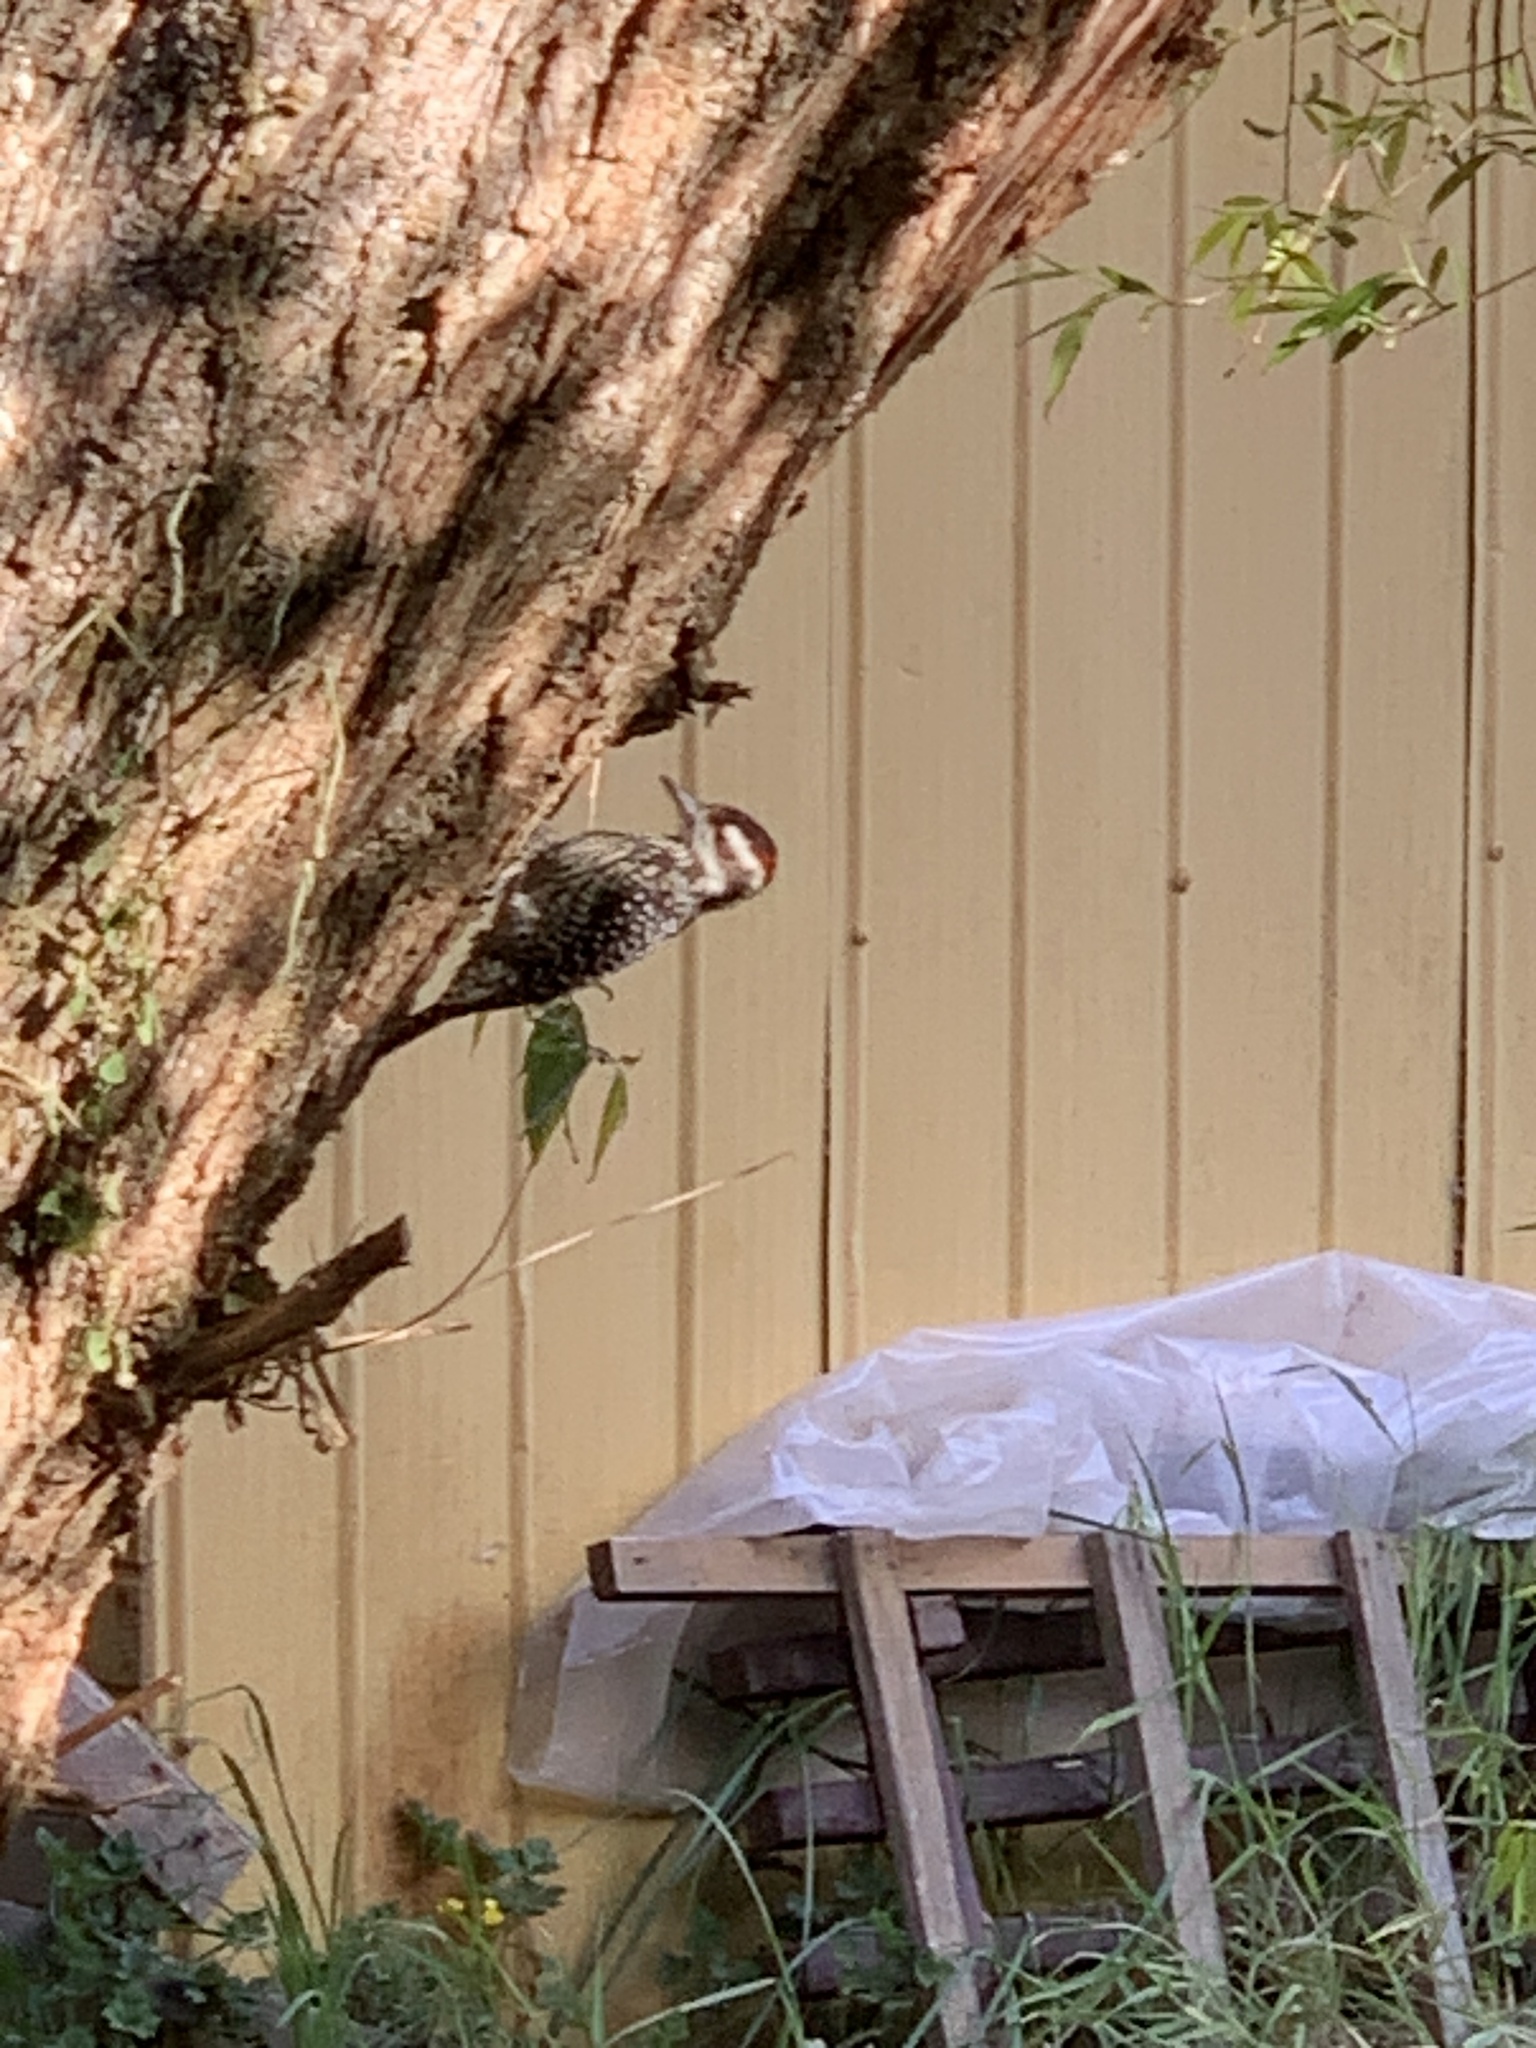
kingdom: Animalia
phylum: Chordata
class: Aves
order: Piciformes
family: Picidae
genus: Veniliornis
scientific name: Veniliornis lignarius
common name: Striped woodpecker
